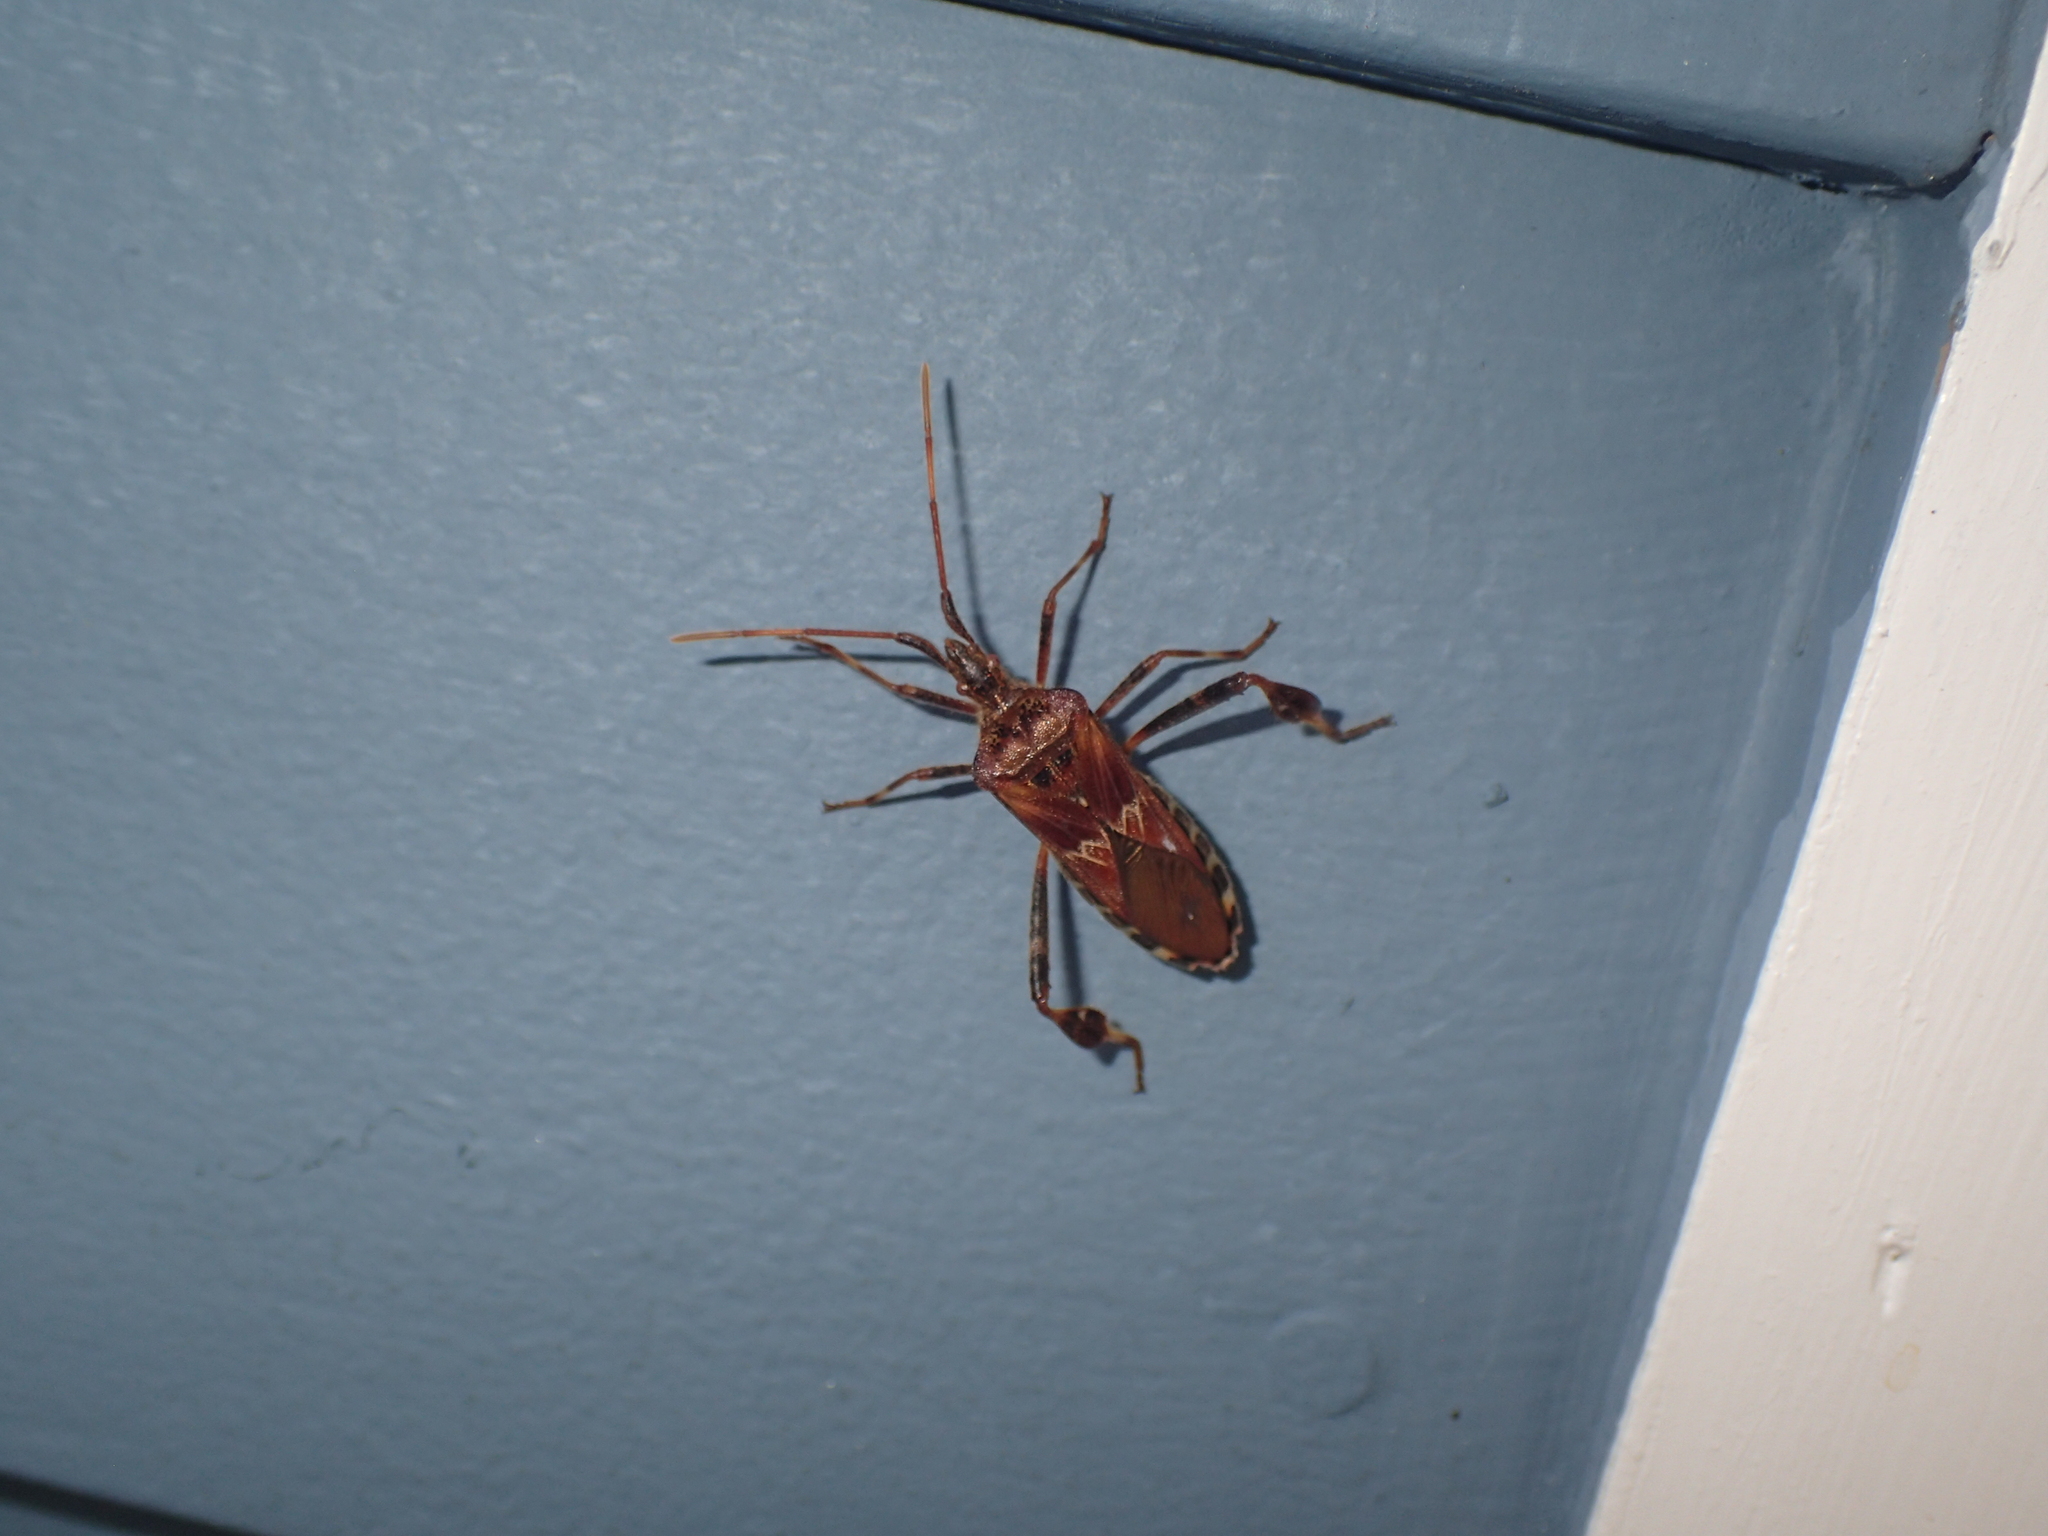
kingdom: Animalia
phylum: Arthropoda
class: Insecta
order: Hemiptera
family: Coreidae
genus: Leptoglossus
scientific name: Leptoglossus occidentalis
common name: Western conifer-seed bug
